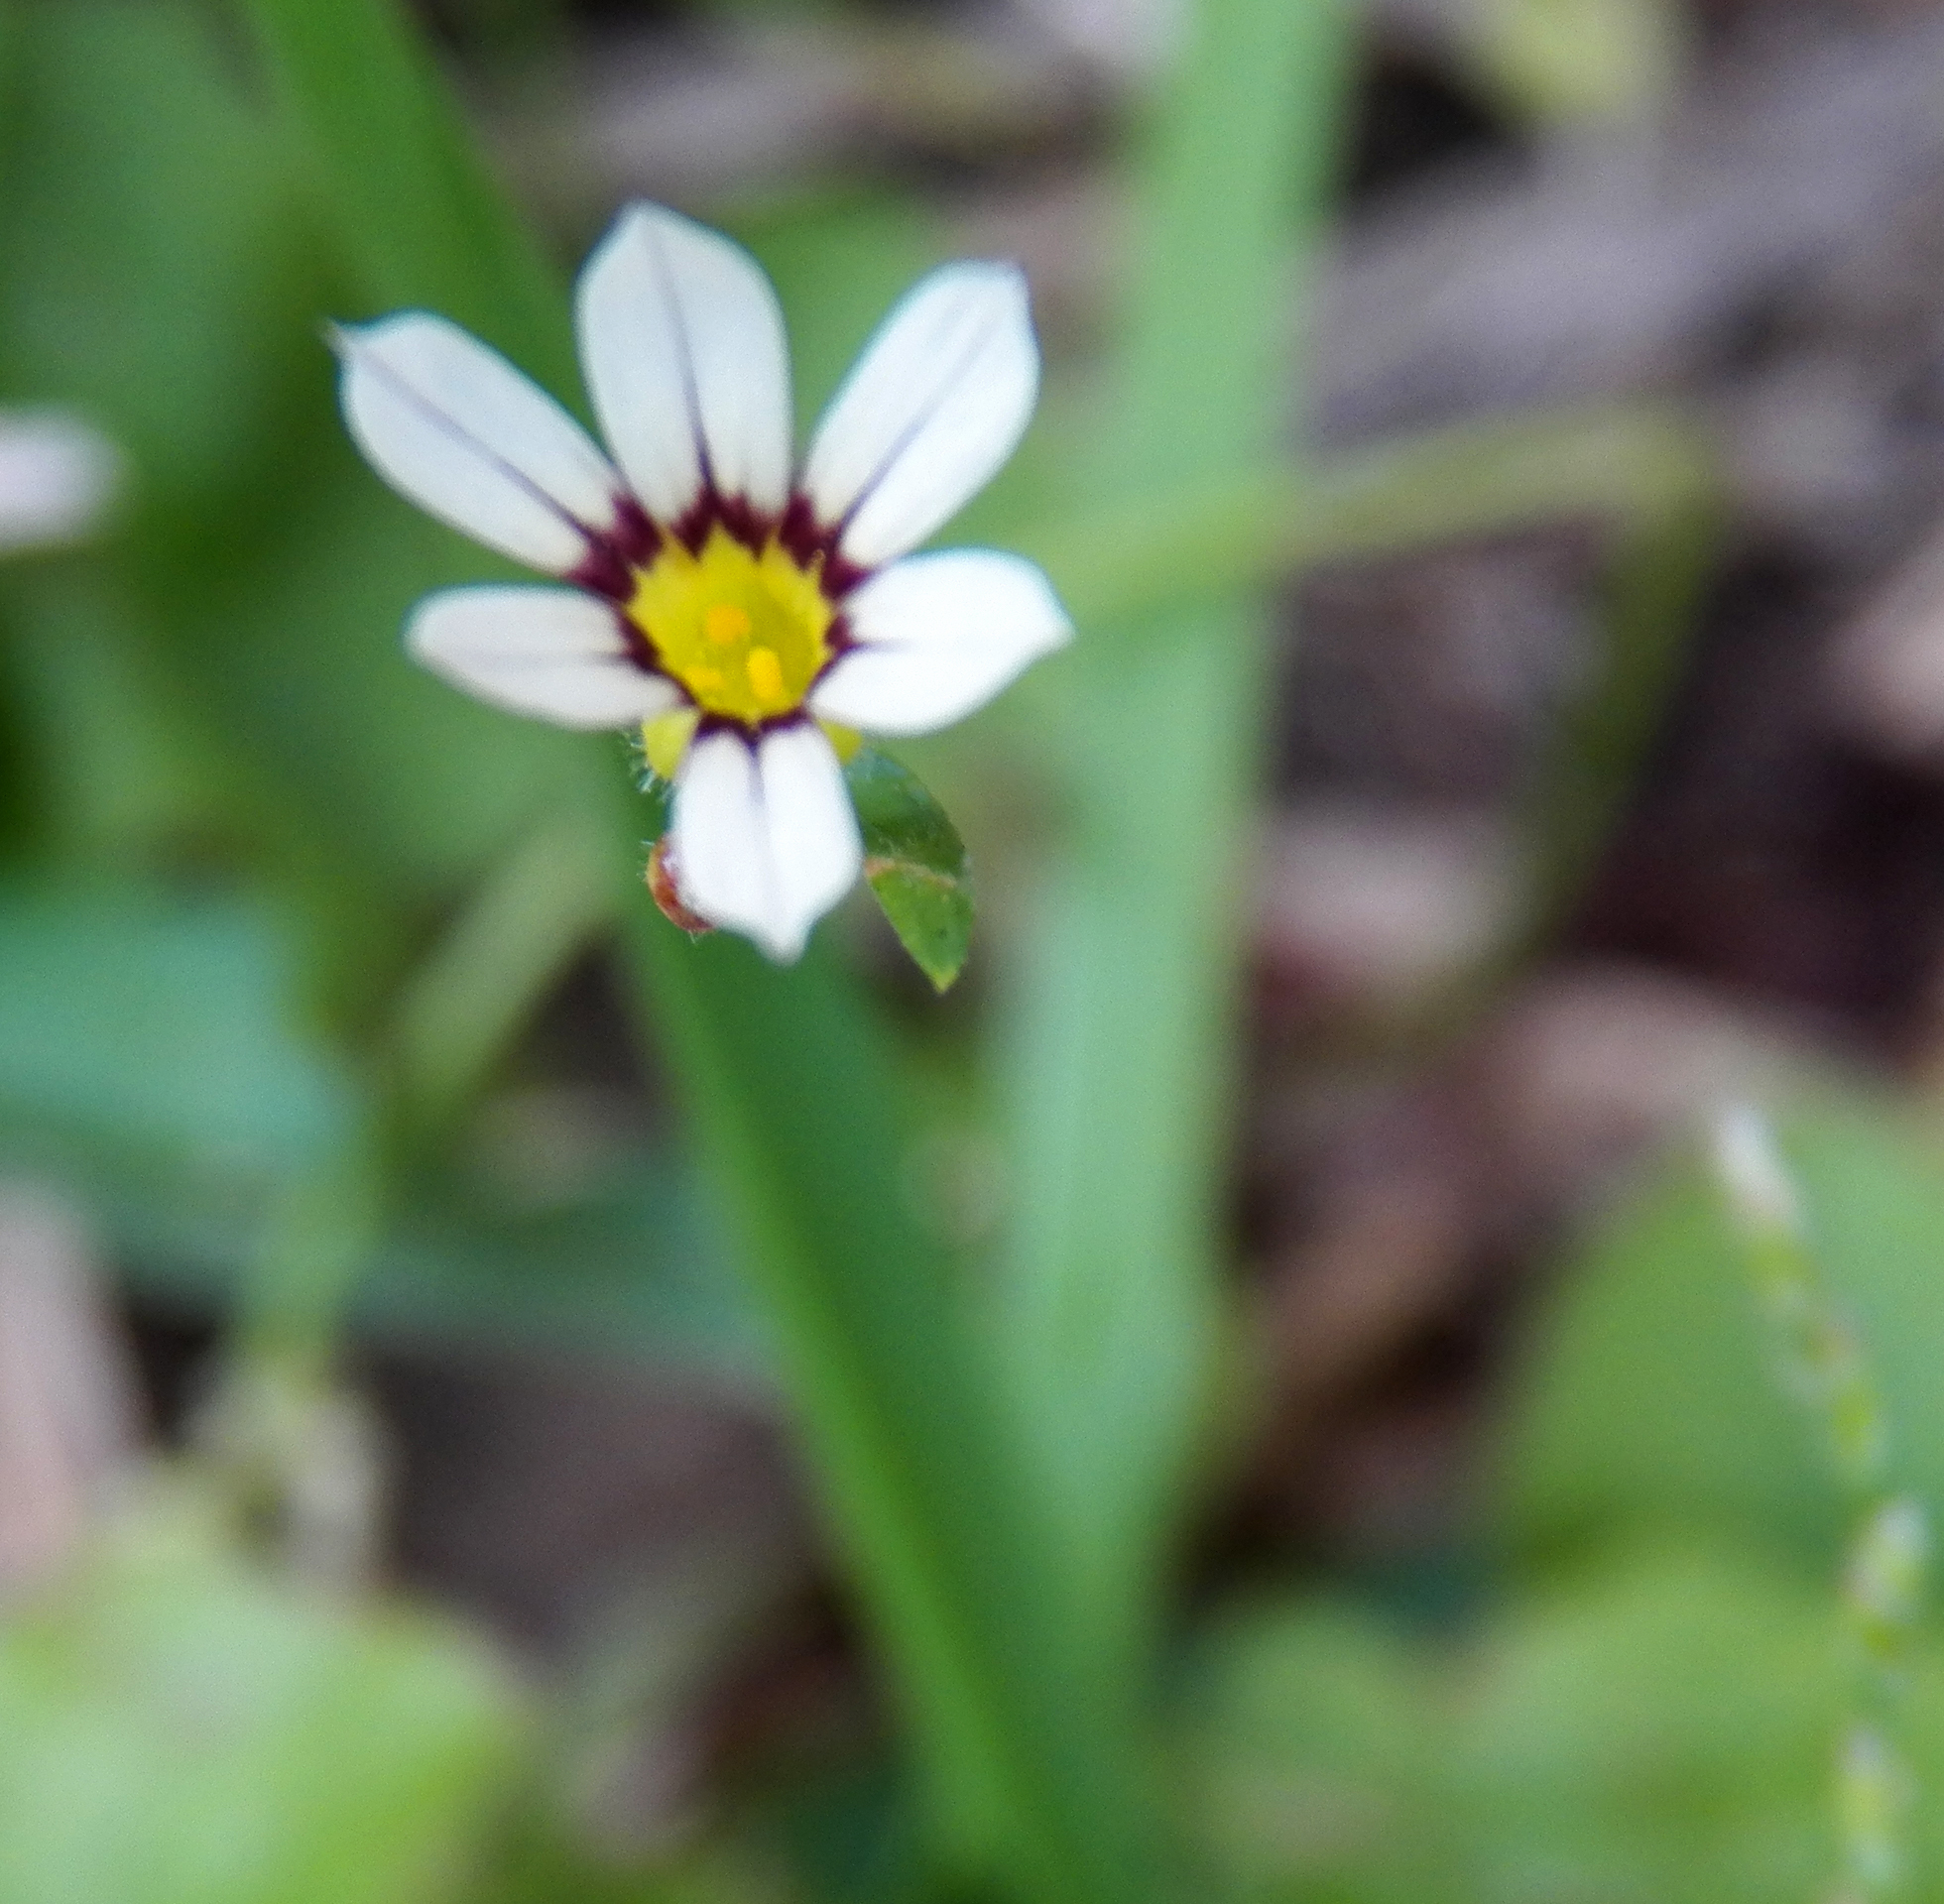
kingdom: Plantae
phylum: Tracheophyta
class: Liliopsida
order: Asparagales
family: Iridaceae
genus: Sisyrinchium
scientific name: Sisyrinchium micranthum
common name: Bermuda pigroot
